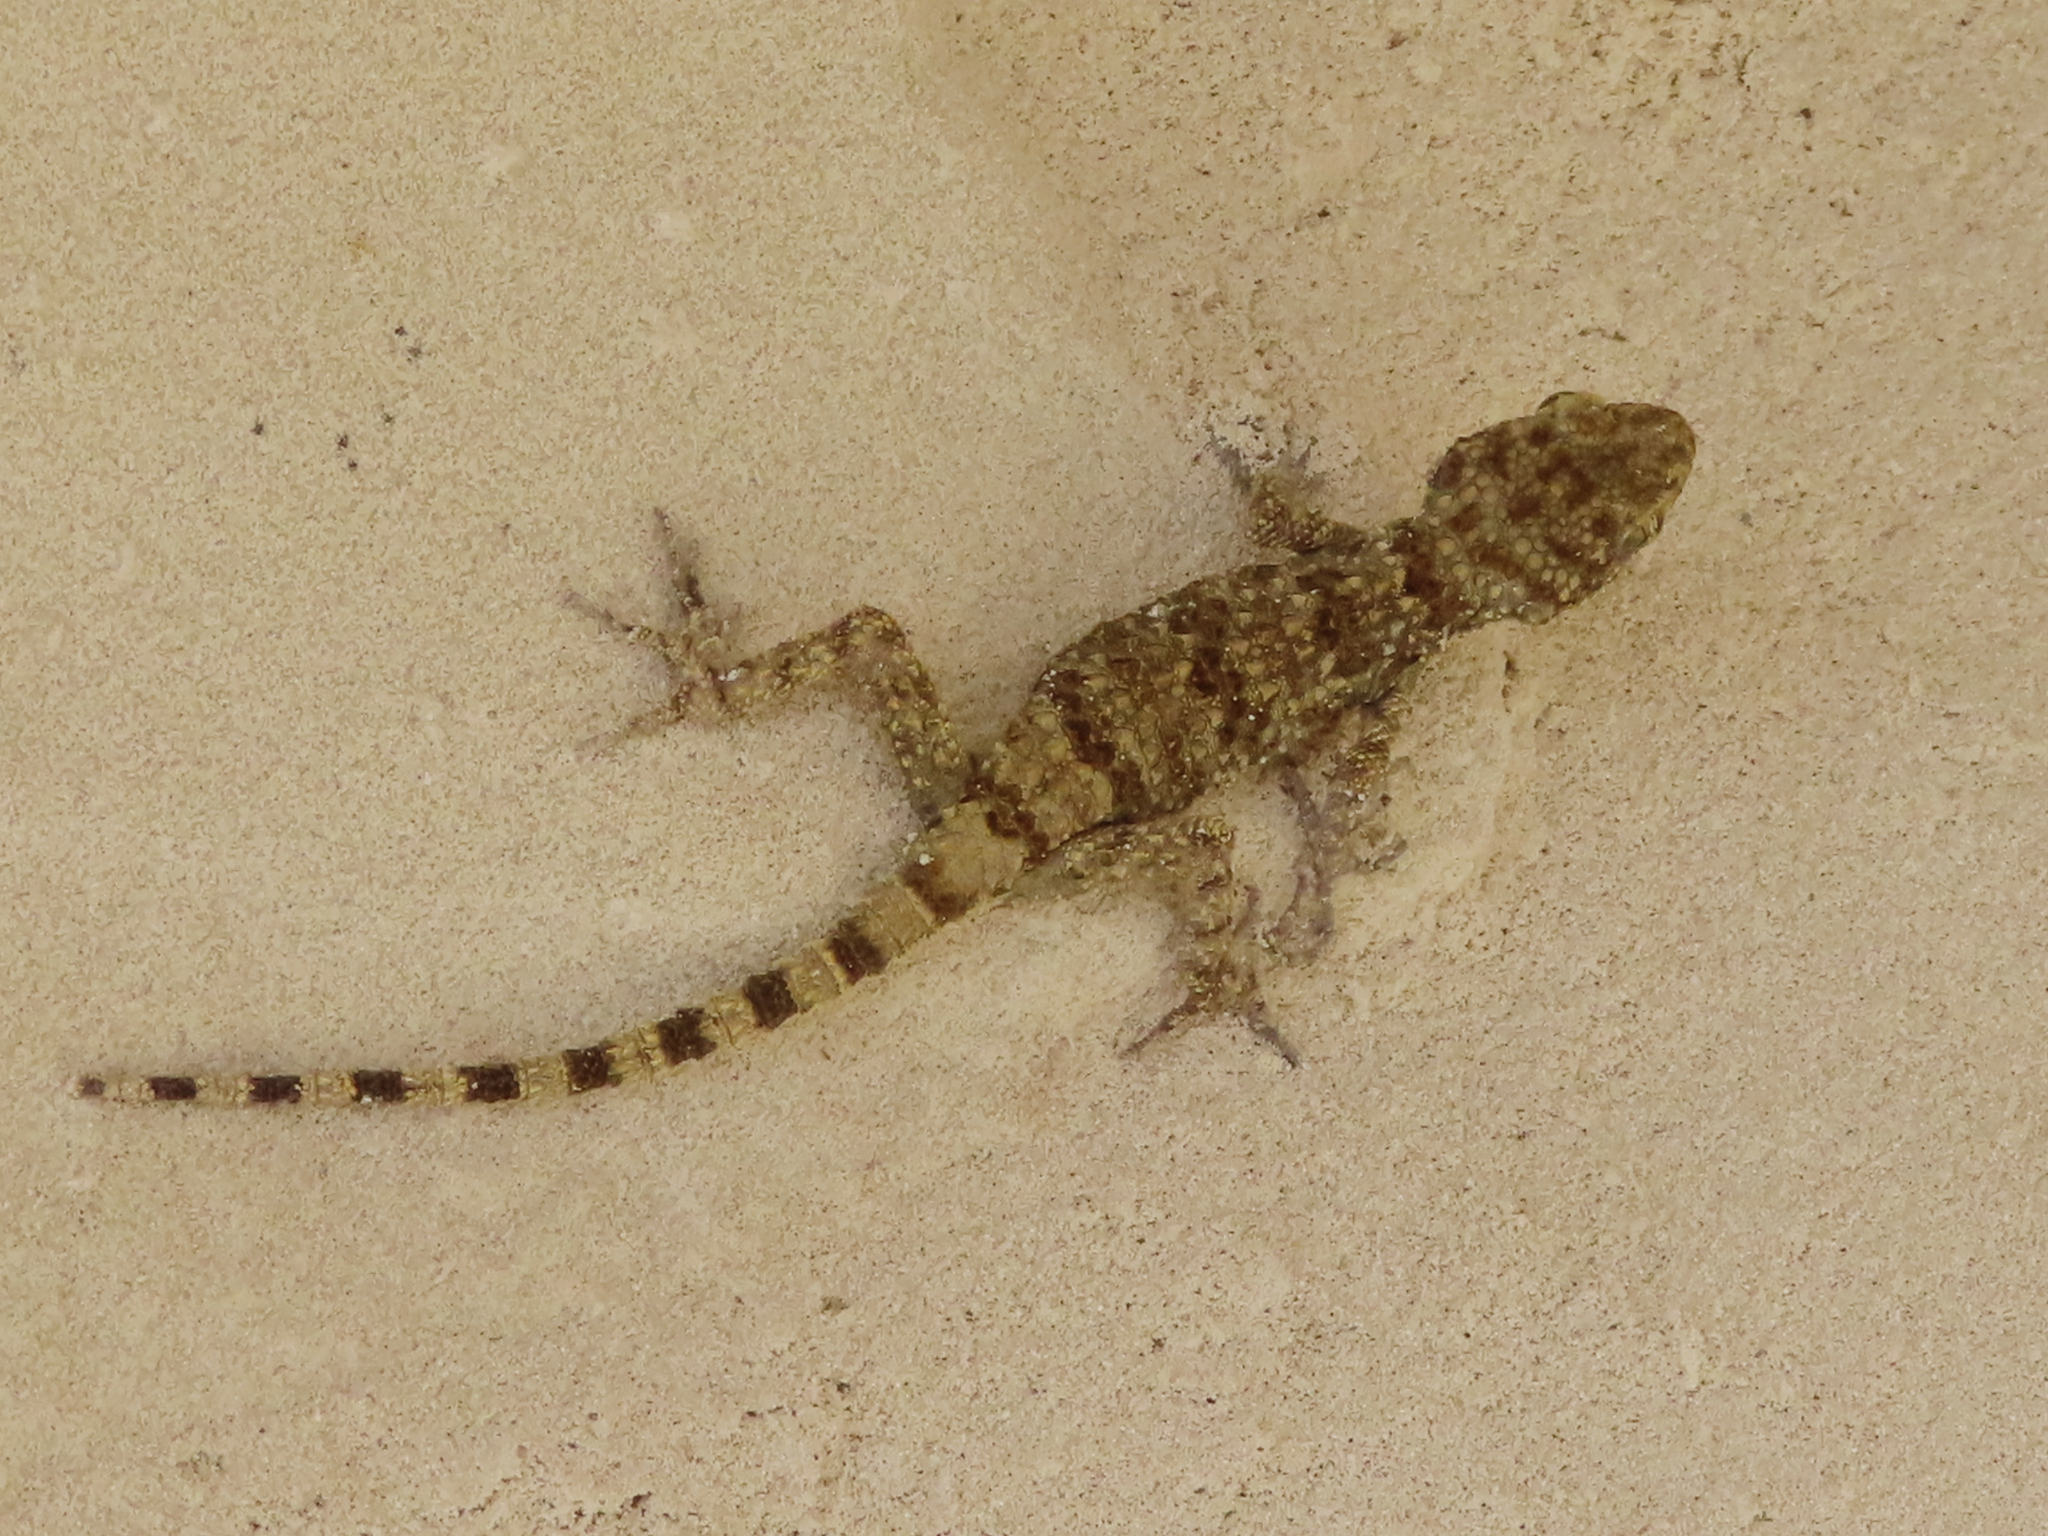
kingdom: Animalia
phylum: Chordata
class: Squamata
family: Gekkonidae
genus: Tenuidactylus
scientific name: Tenuidactylus caspius
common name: Caspian bent-toed gecko
